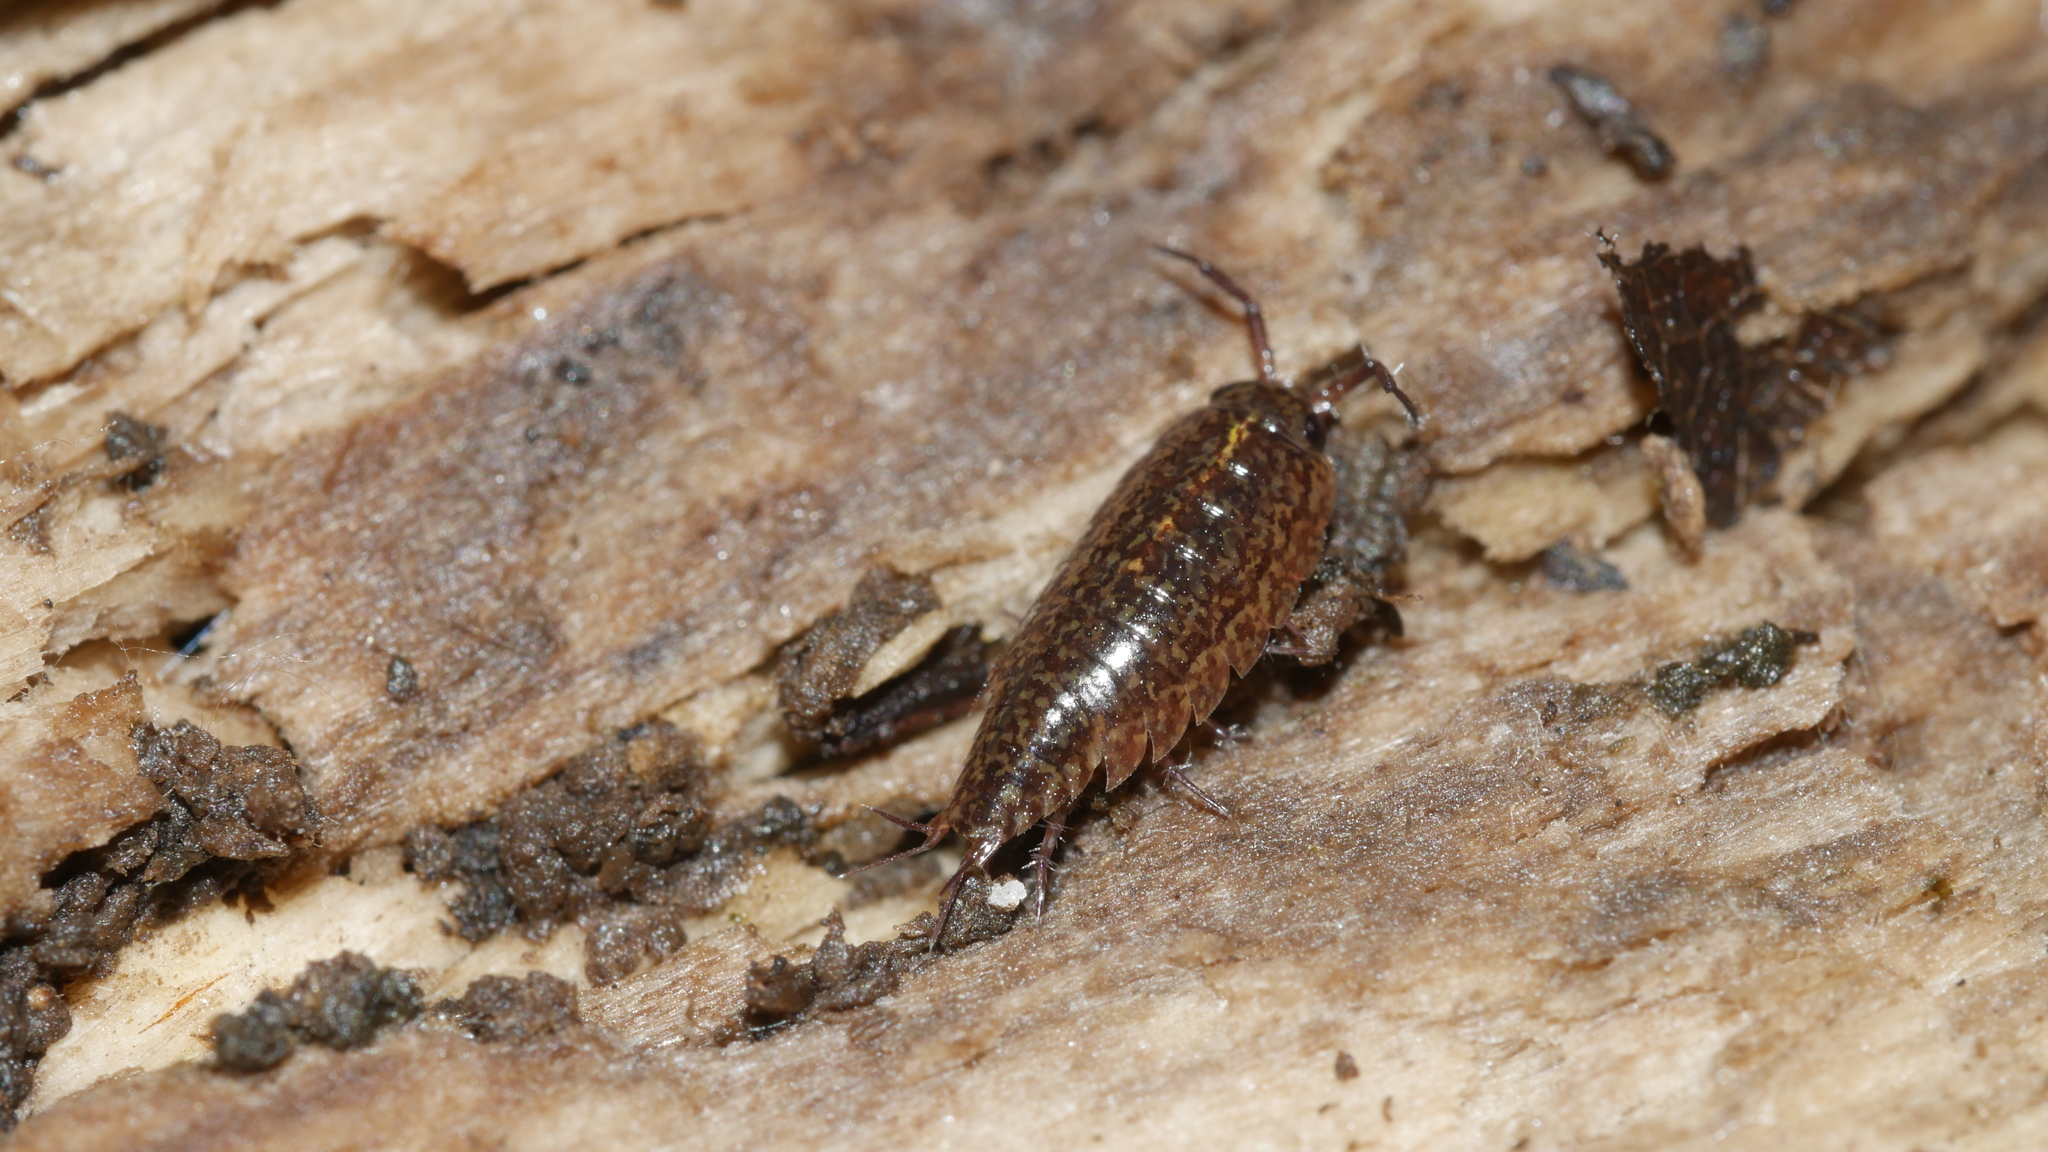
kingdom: Animalia
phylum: Arthropoda
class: Malacostraca
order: Isopoda
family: Ligiidae
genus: Ligidium
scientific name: Ligidium elrodii
